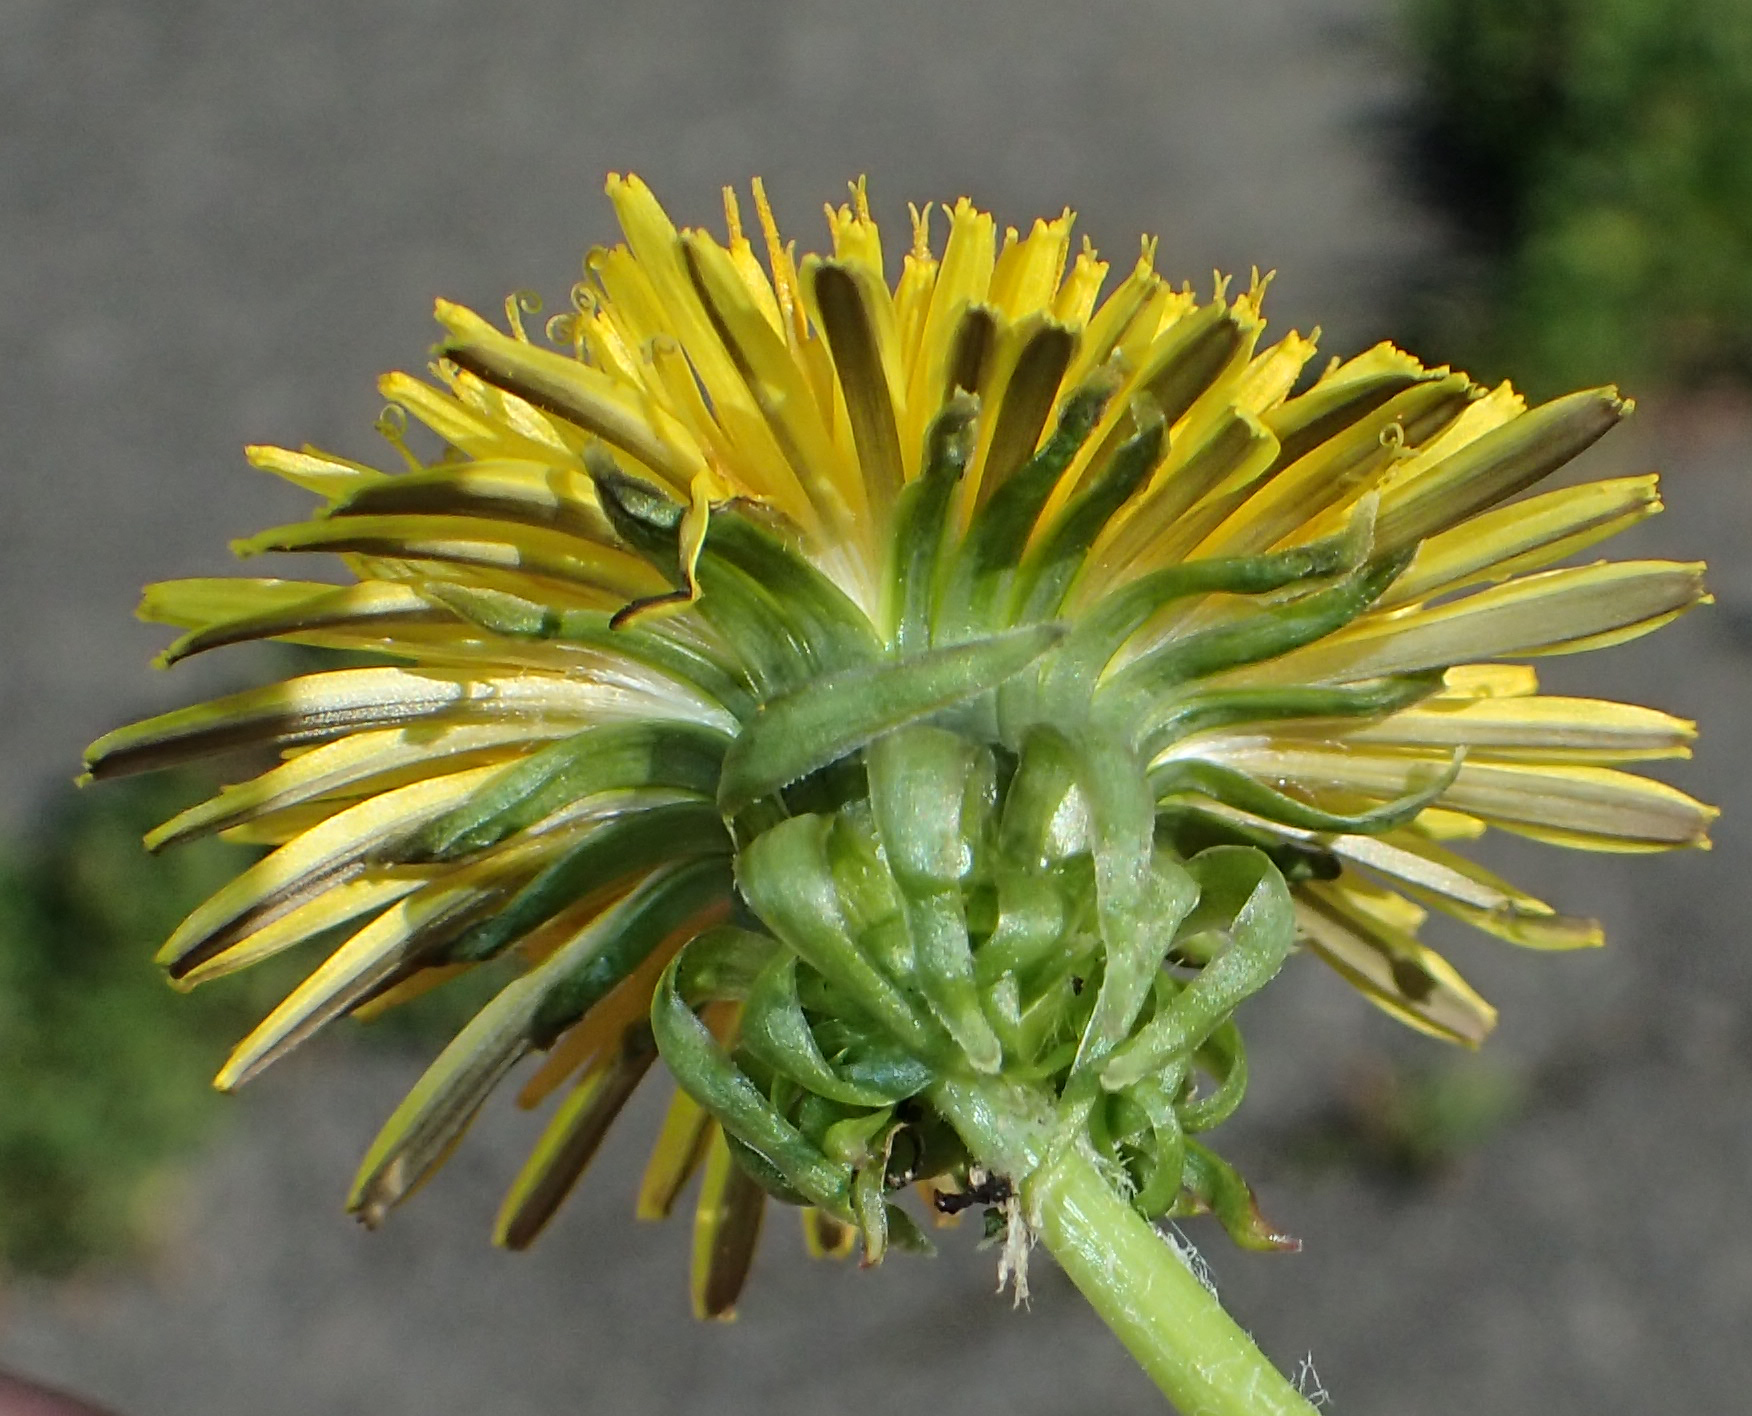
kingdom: Plantae
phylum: Tracheophyta
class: Magnoliopsida
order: Asterales
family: Asteraceae
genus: Taraxacum
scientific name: Taraxacum officinale
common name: Common dandelion
